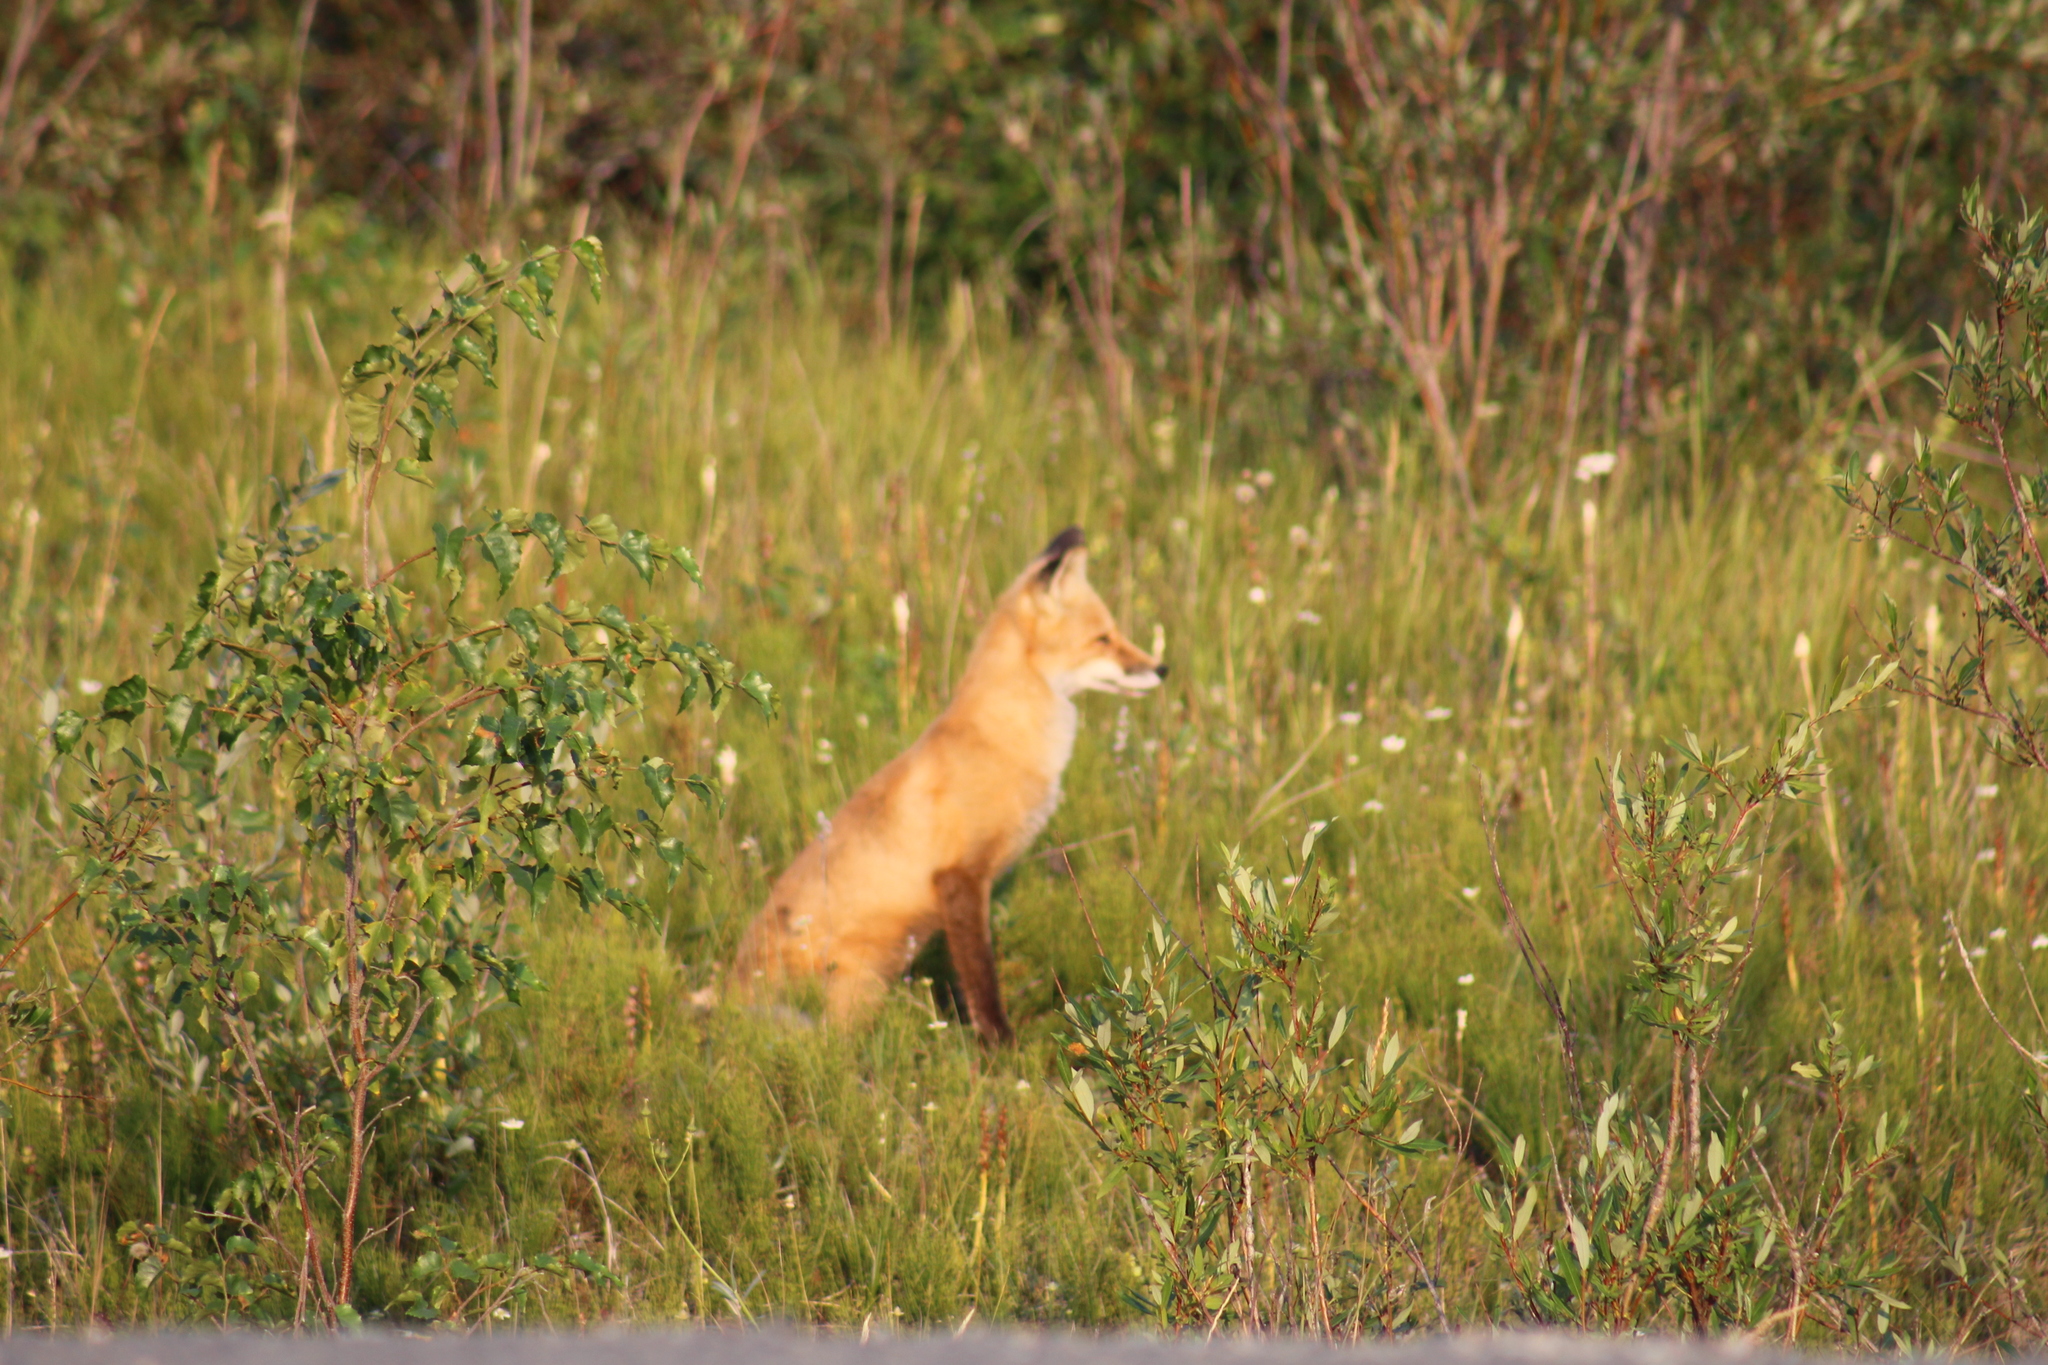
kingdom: Animalia
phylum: Chordata
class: Mammalia
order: Carnivora
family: Canidae
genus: Vulpes
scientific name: Vulpes vulpes
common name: Red fox
